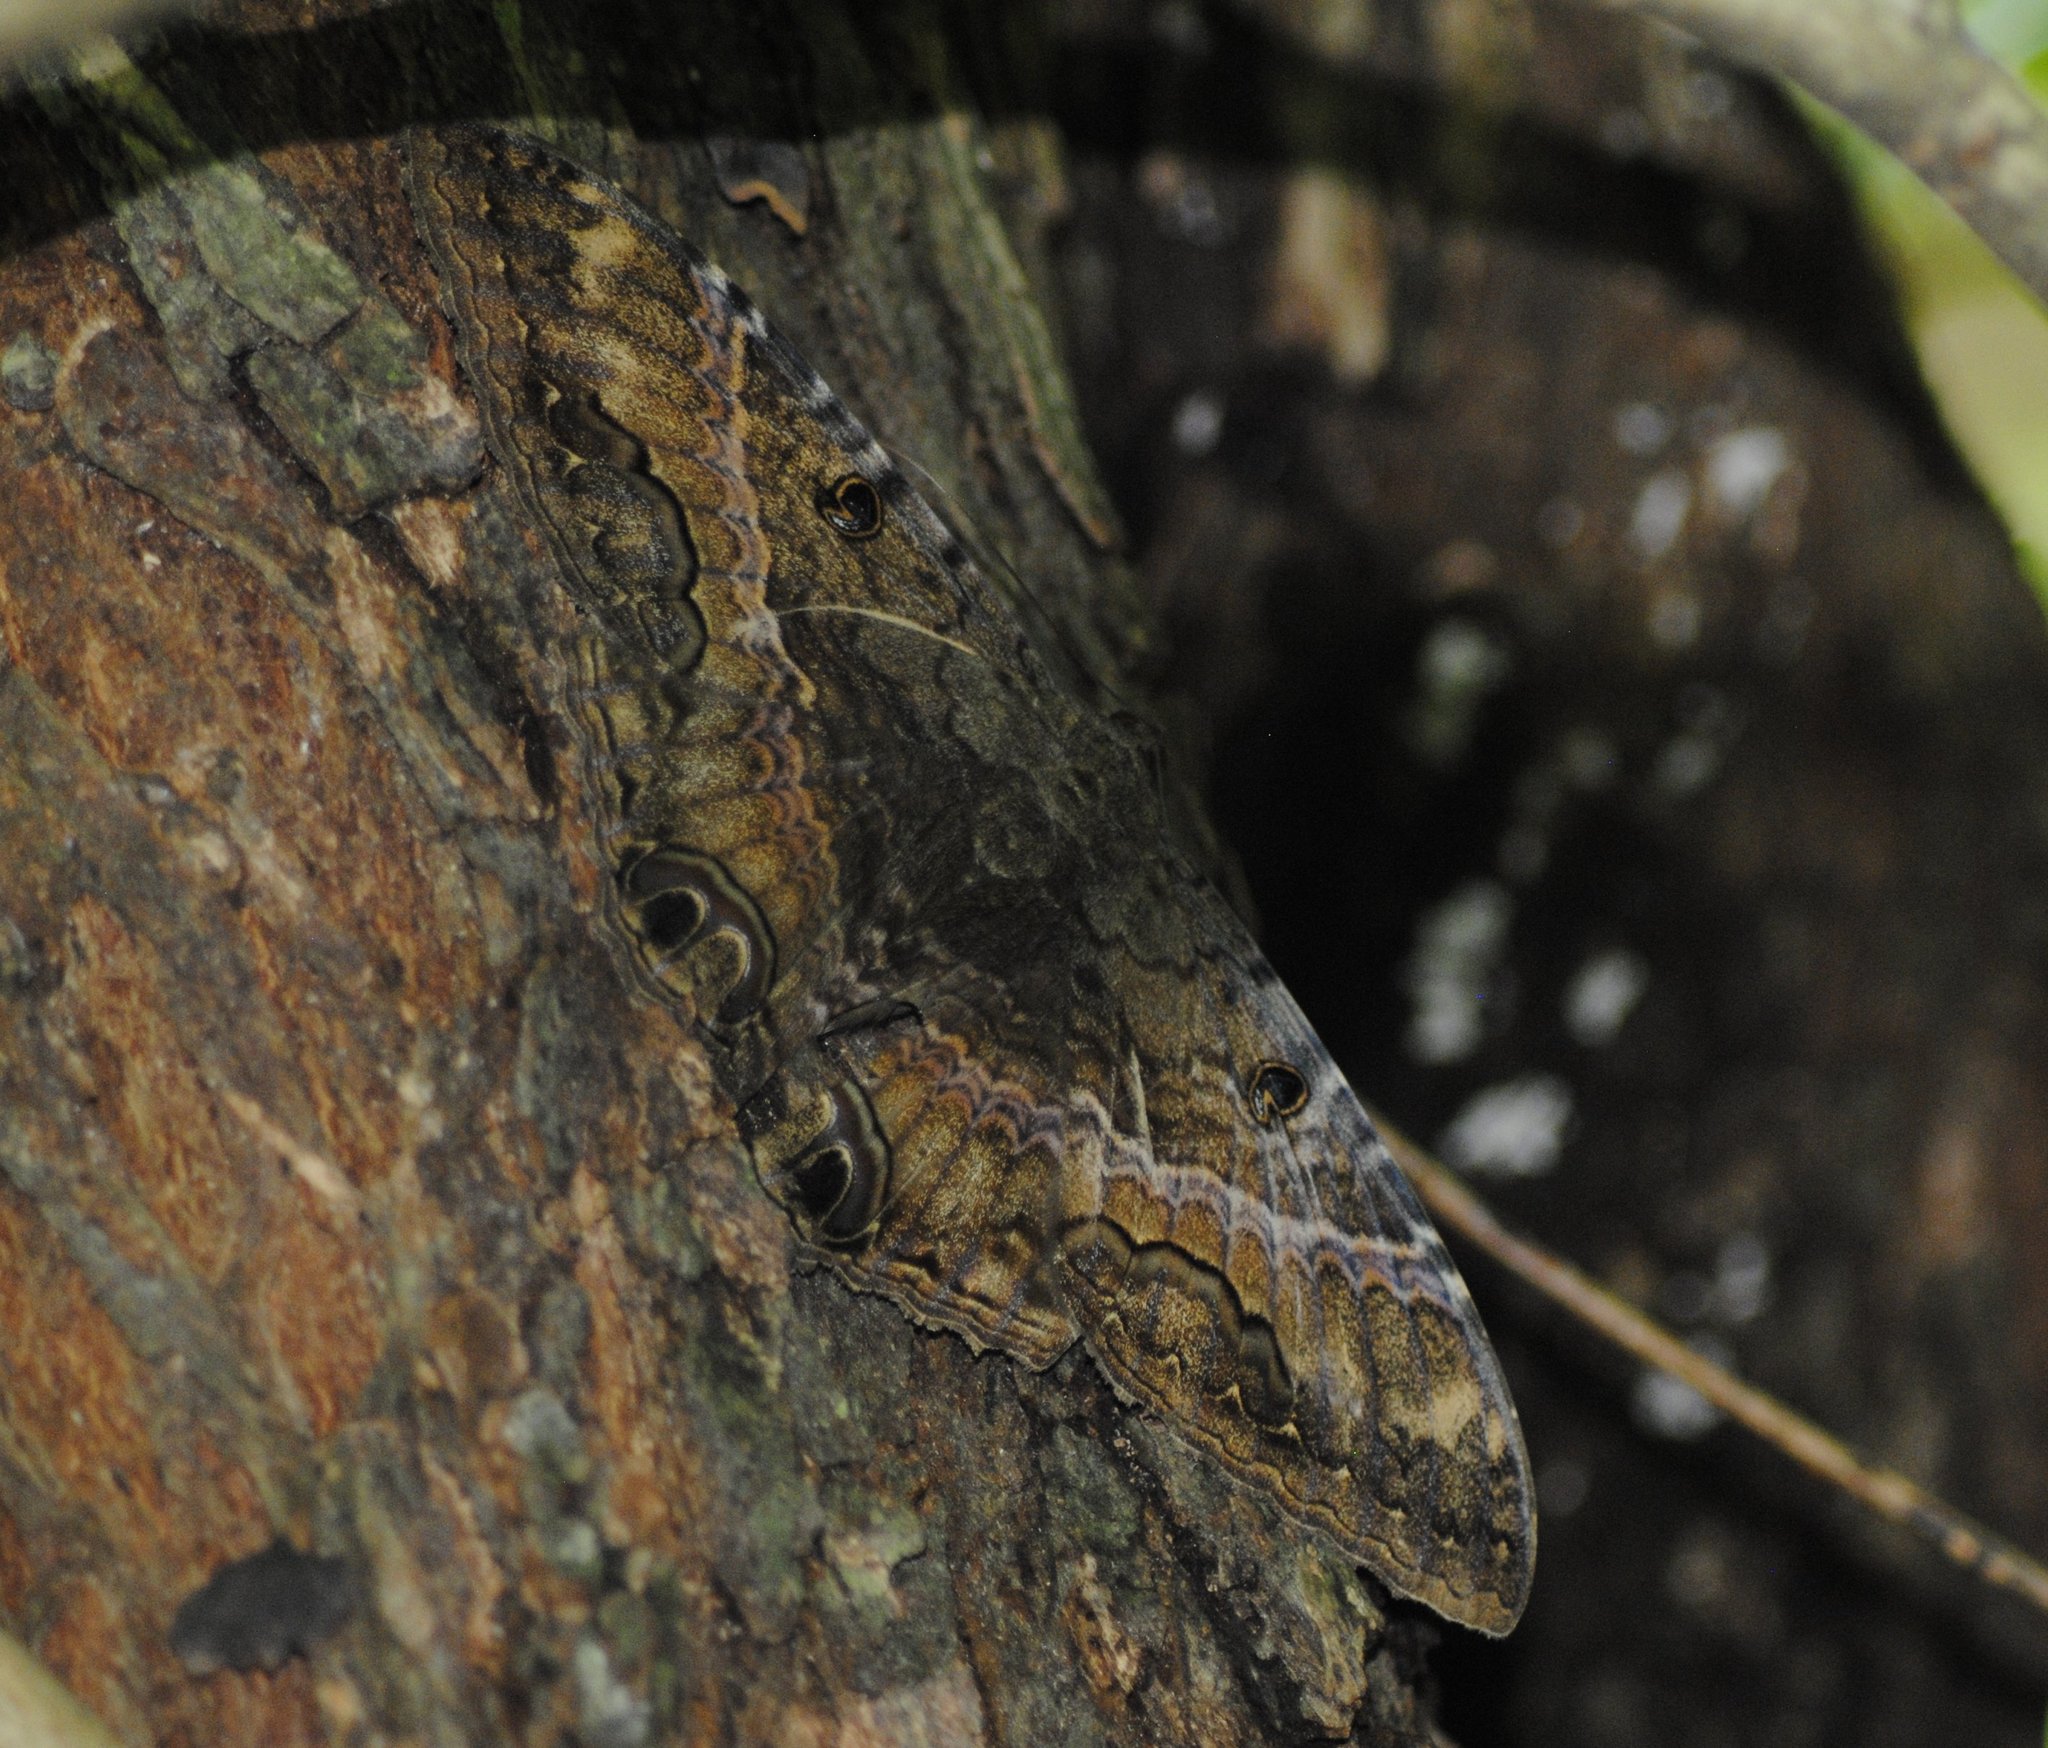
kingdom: Animalia
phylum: Arthropoda
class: Insecta
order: Lepidoptera
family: Erebidae
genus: Ascalapha
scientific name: Ascalapha odorata
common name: Black witch
